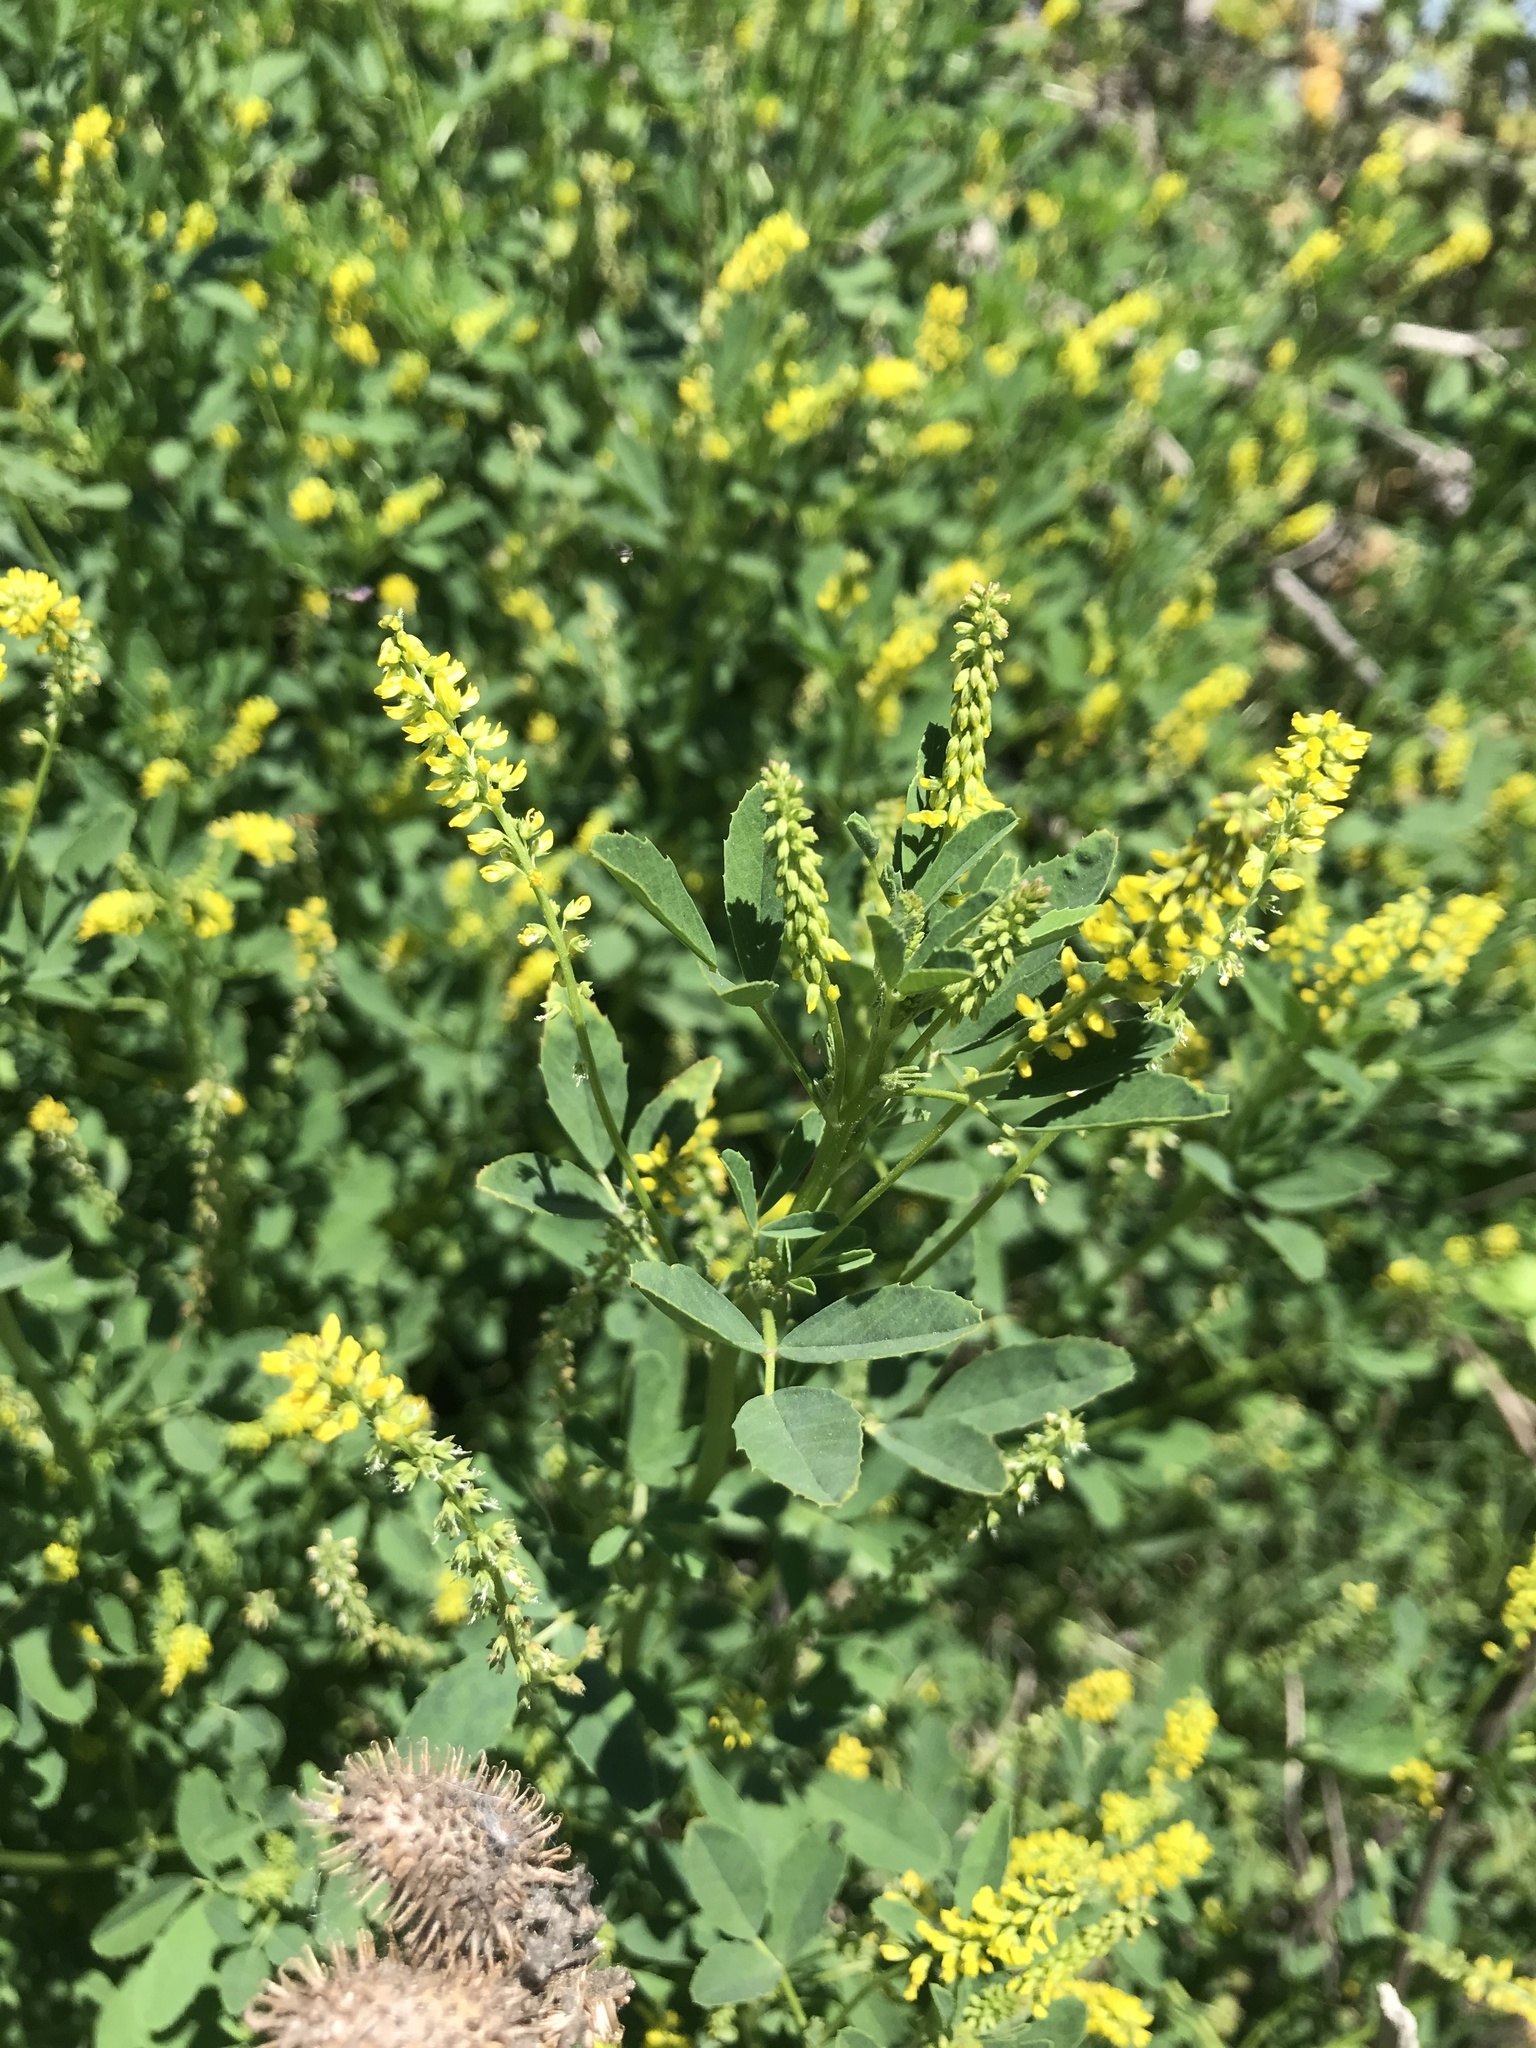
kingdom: Plantae
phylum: Tracheophyta
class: Magnoliopsida
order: Fabales
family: Fabaceae
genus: Melilotus
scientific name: Melilotus indicus
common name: Small melilot
